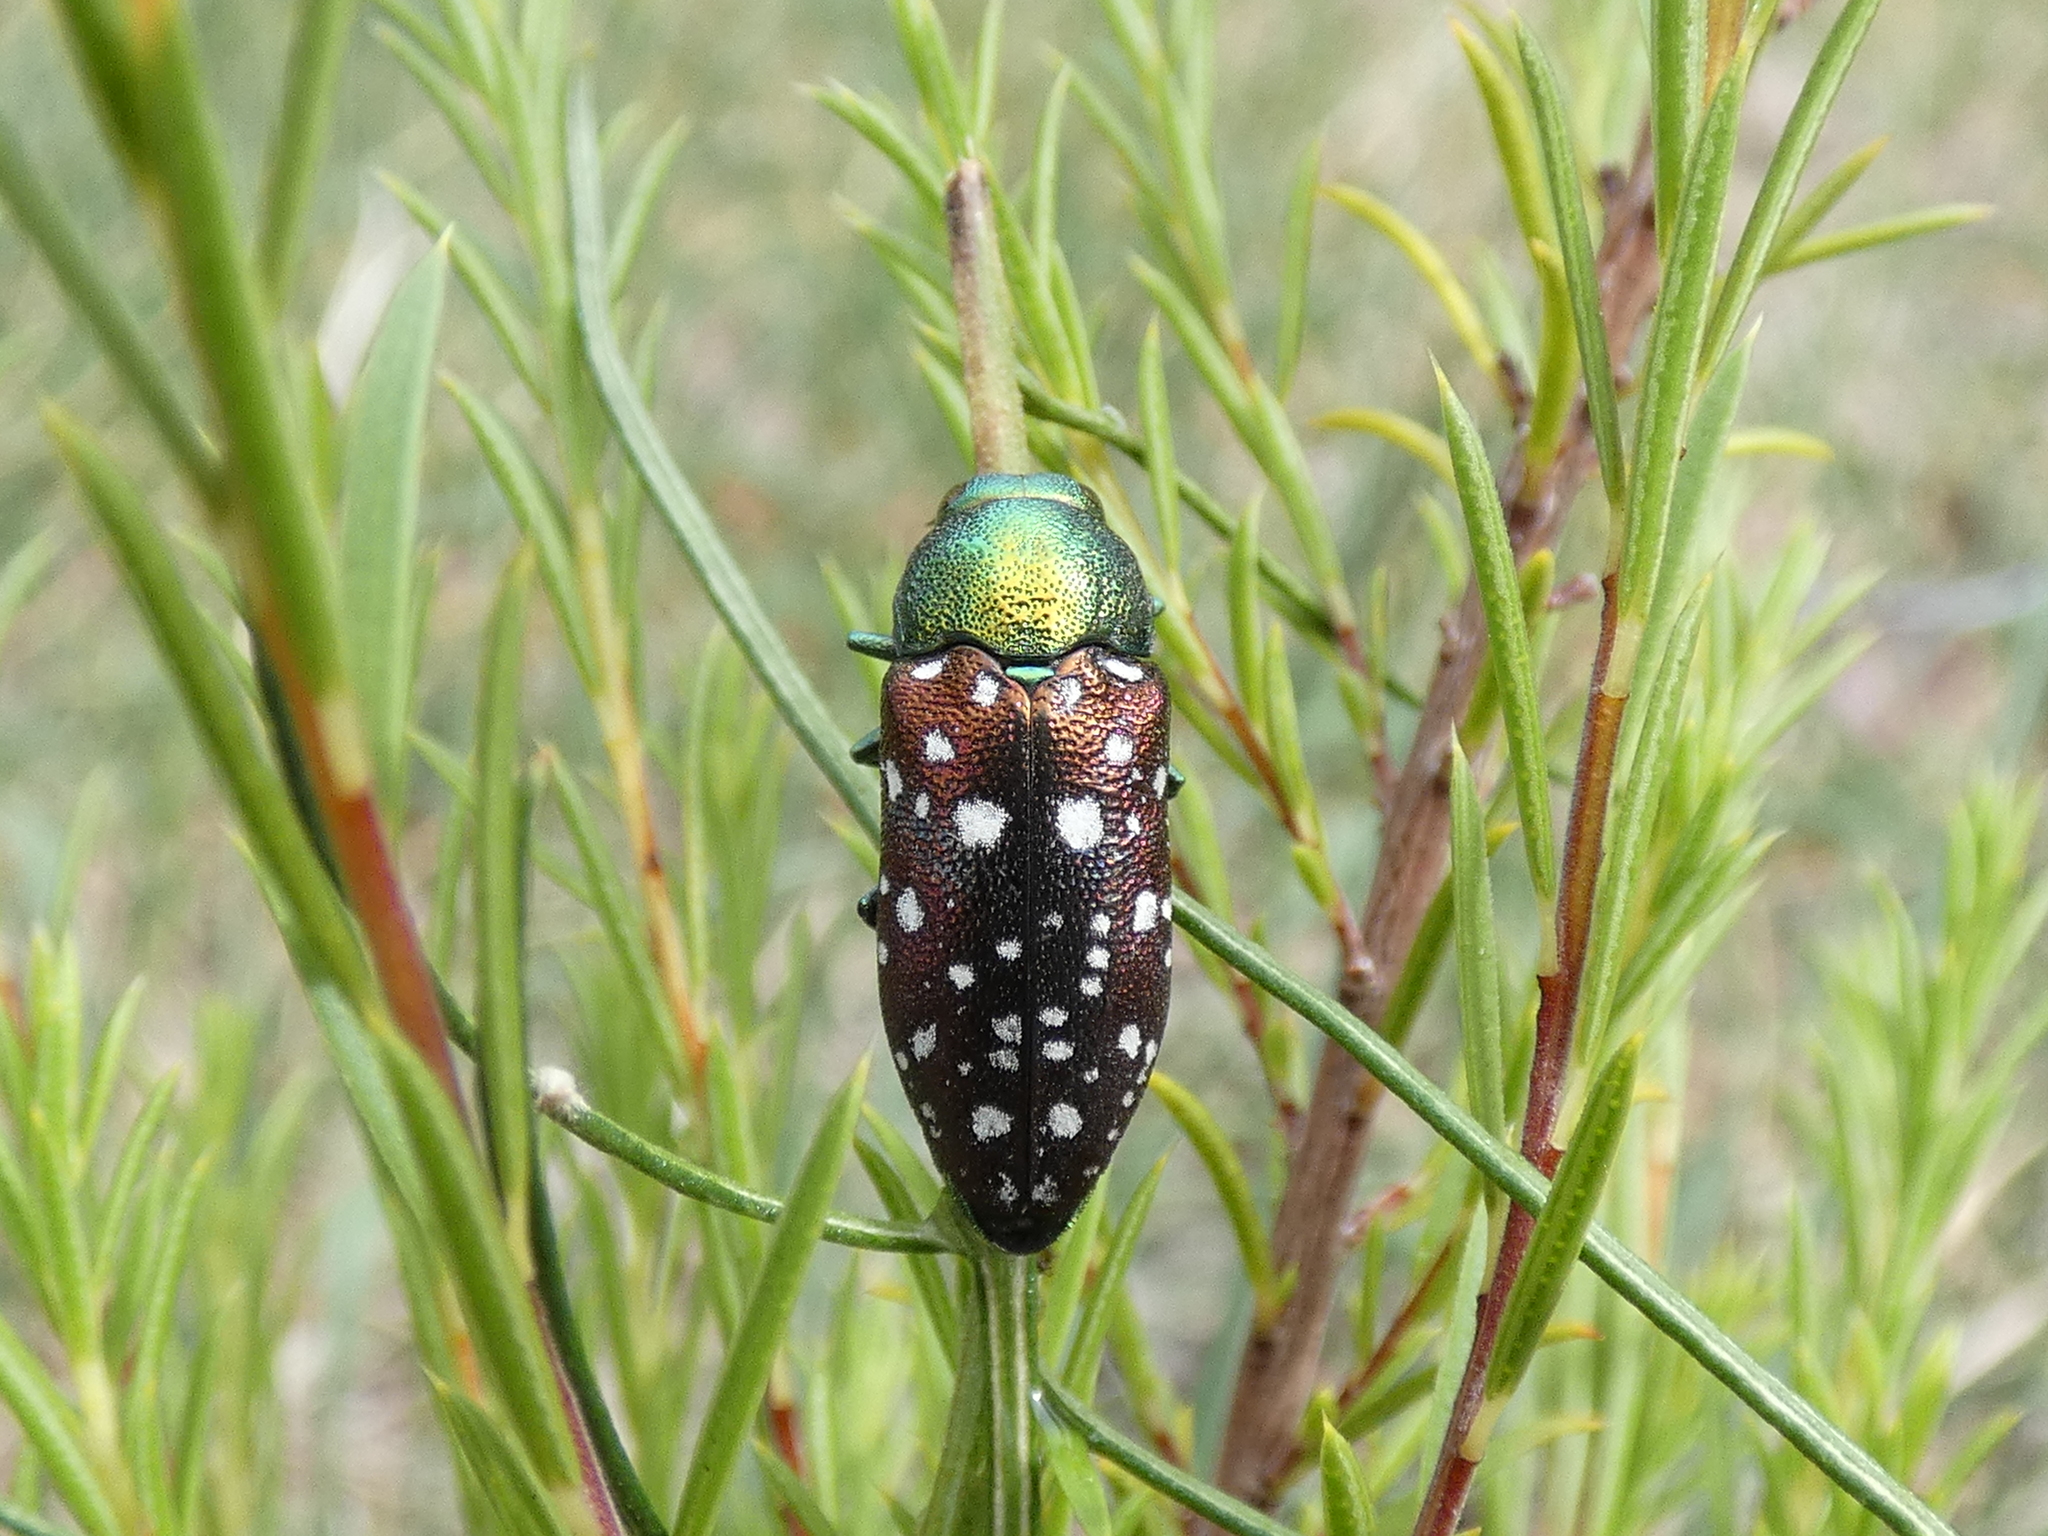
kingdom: Animalia
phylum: Arthropoda
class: Insecta
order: Coleoptera
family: Buprestidae
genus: Diphucrania
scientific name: Diphucrania leucosticta
